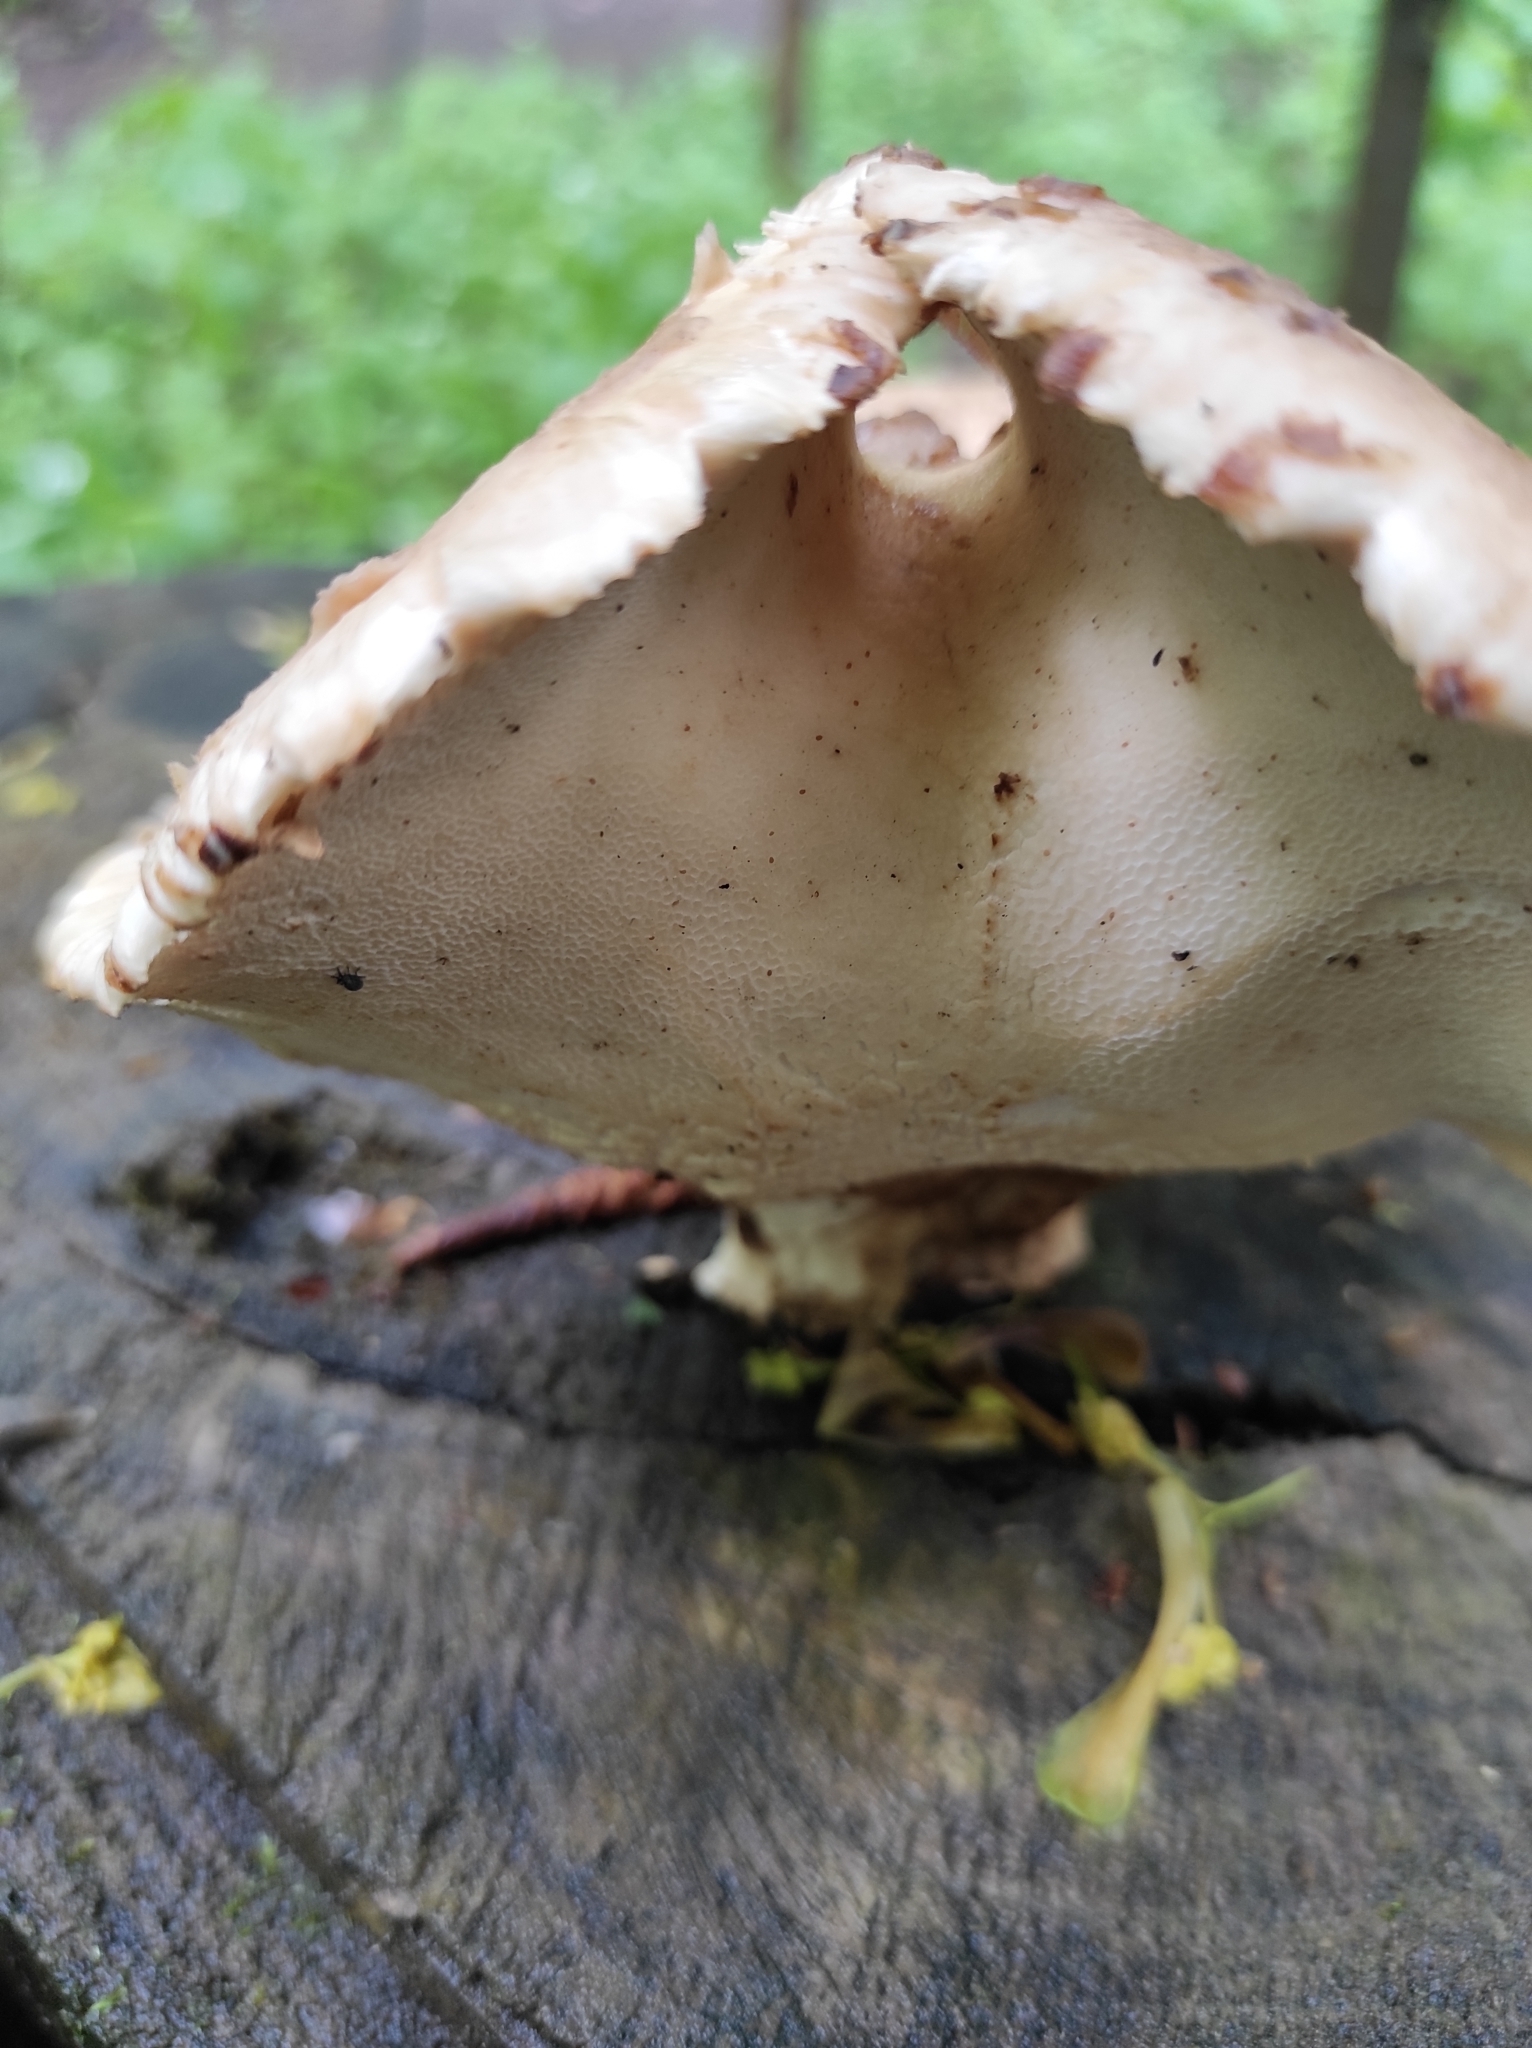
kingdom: Fungi
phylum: Basidiomycota
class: Agaricomycetes
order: Polyporales
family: Polyporaceae
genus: Cerioporus
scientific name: Cerioporus squamosus
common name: Dryad's saddle
